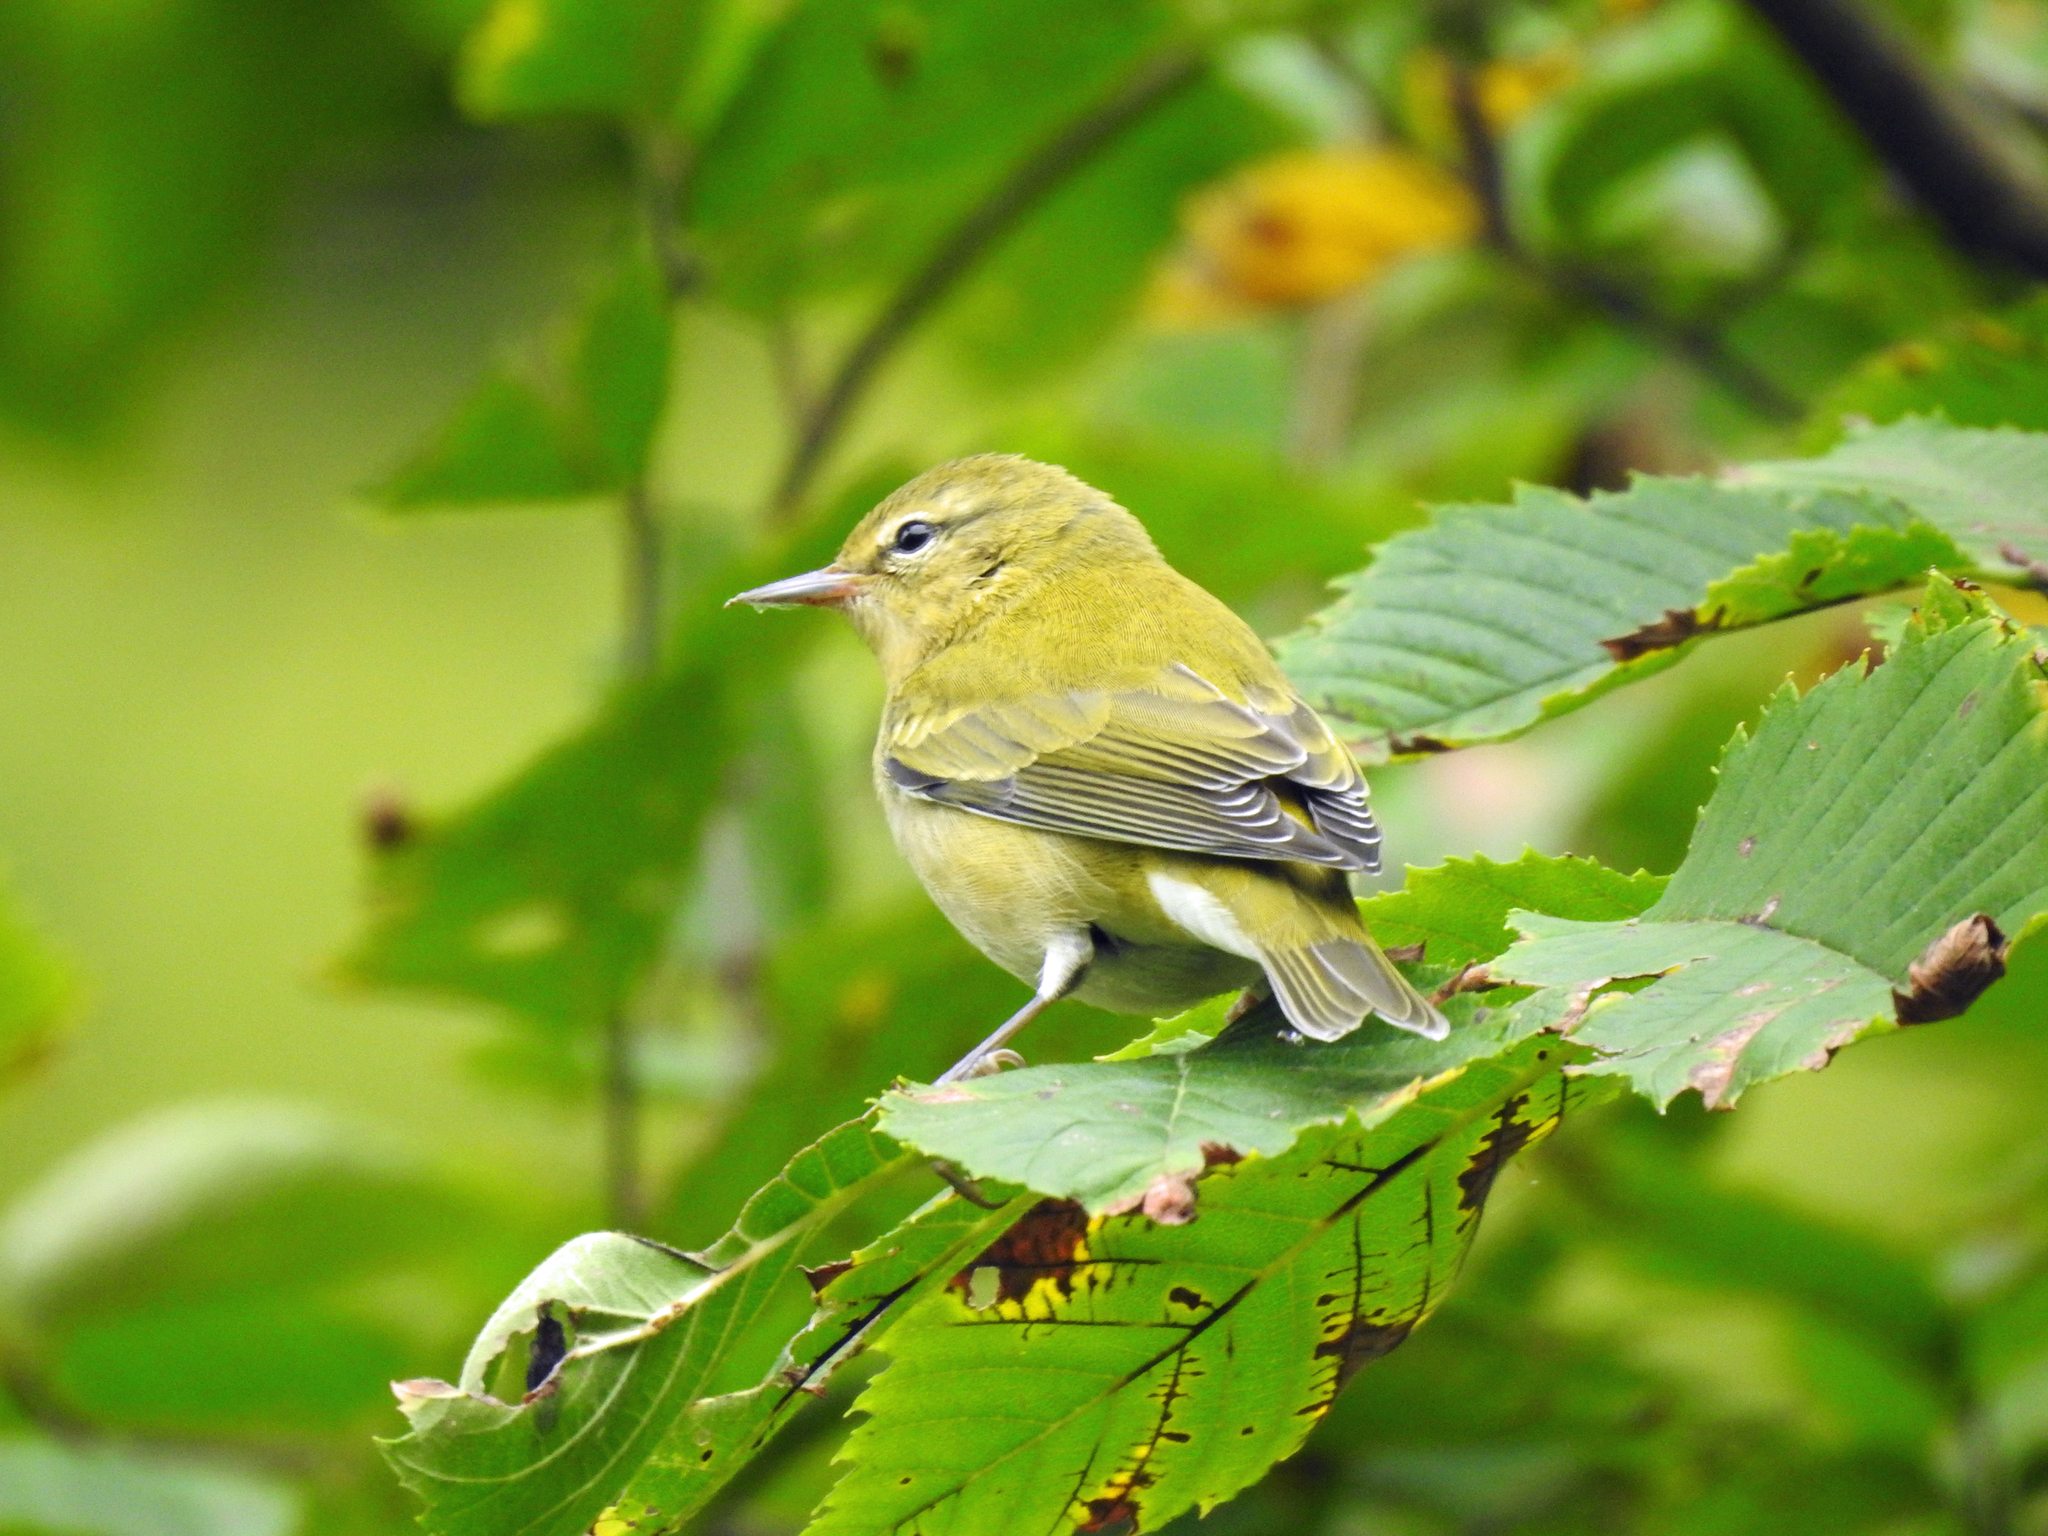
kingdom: Animalia
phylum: Chordata
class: Aves
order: Passeriformes
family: Parulidae
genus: Leiothlypis
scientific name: Leiothlypis peregrina
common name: Tennessee warbler
